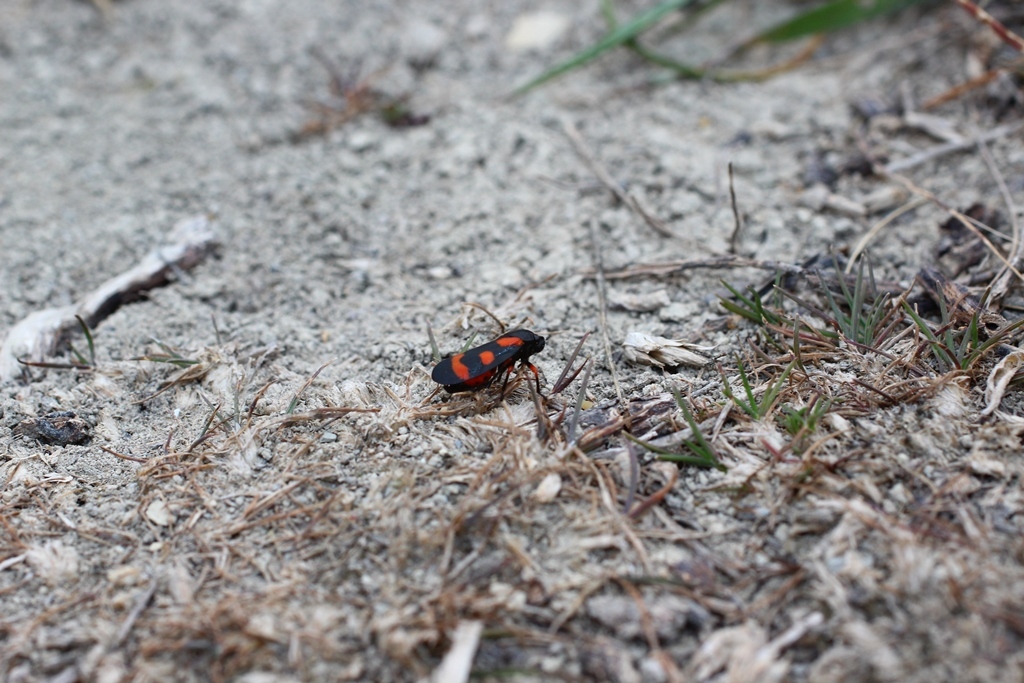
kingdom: Animalia
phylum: Arthropoda
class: Insecta
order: Hemiptera
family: Cercopidae
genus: Cercopis
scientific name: Cercopis intermedia
